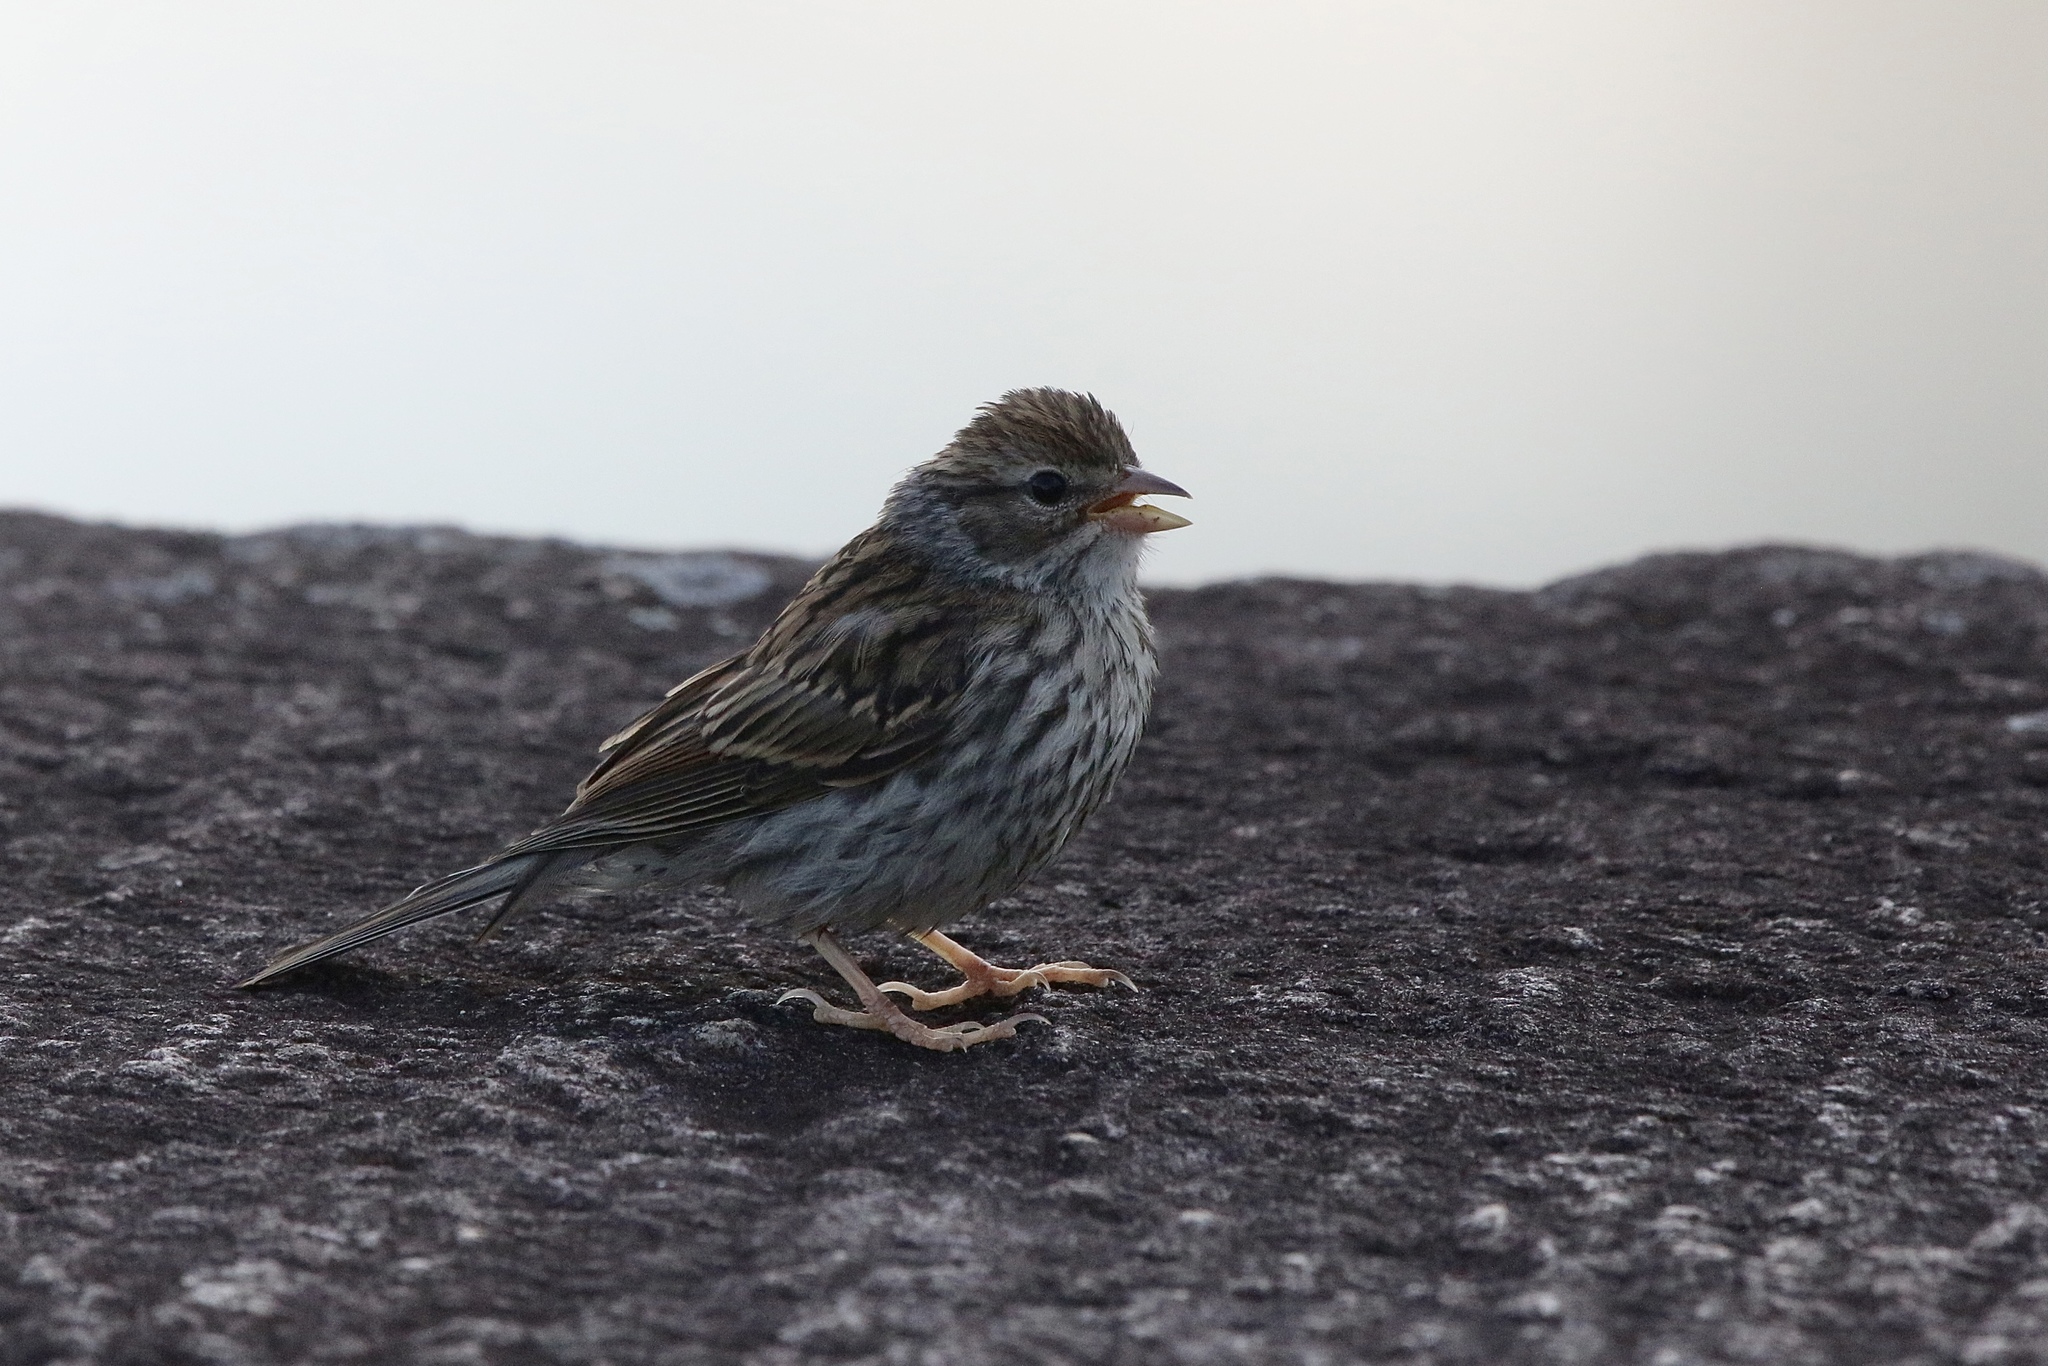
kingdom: Animalia
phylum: Chordata
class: Aves
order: Passeriformes
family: Passerellidae
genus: Spizella
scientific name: Spizella passerina
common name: Chipping sparrow
